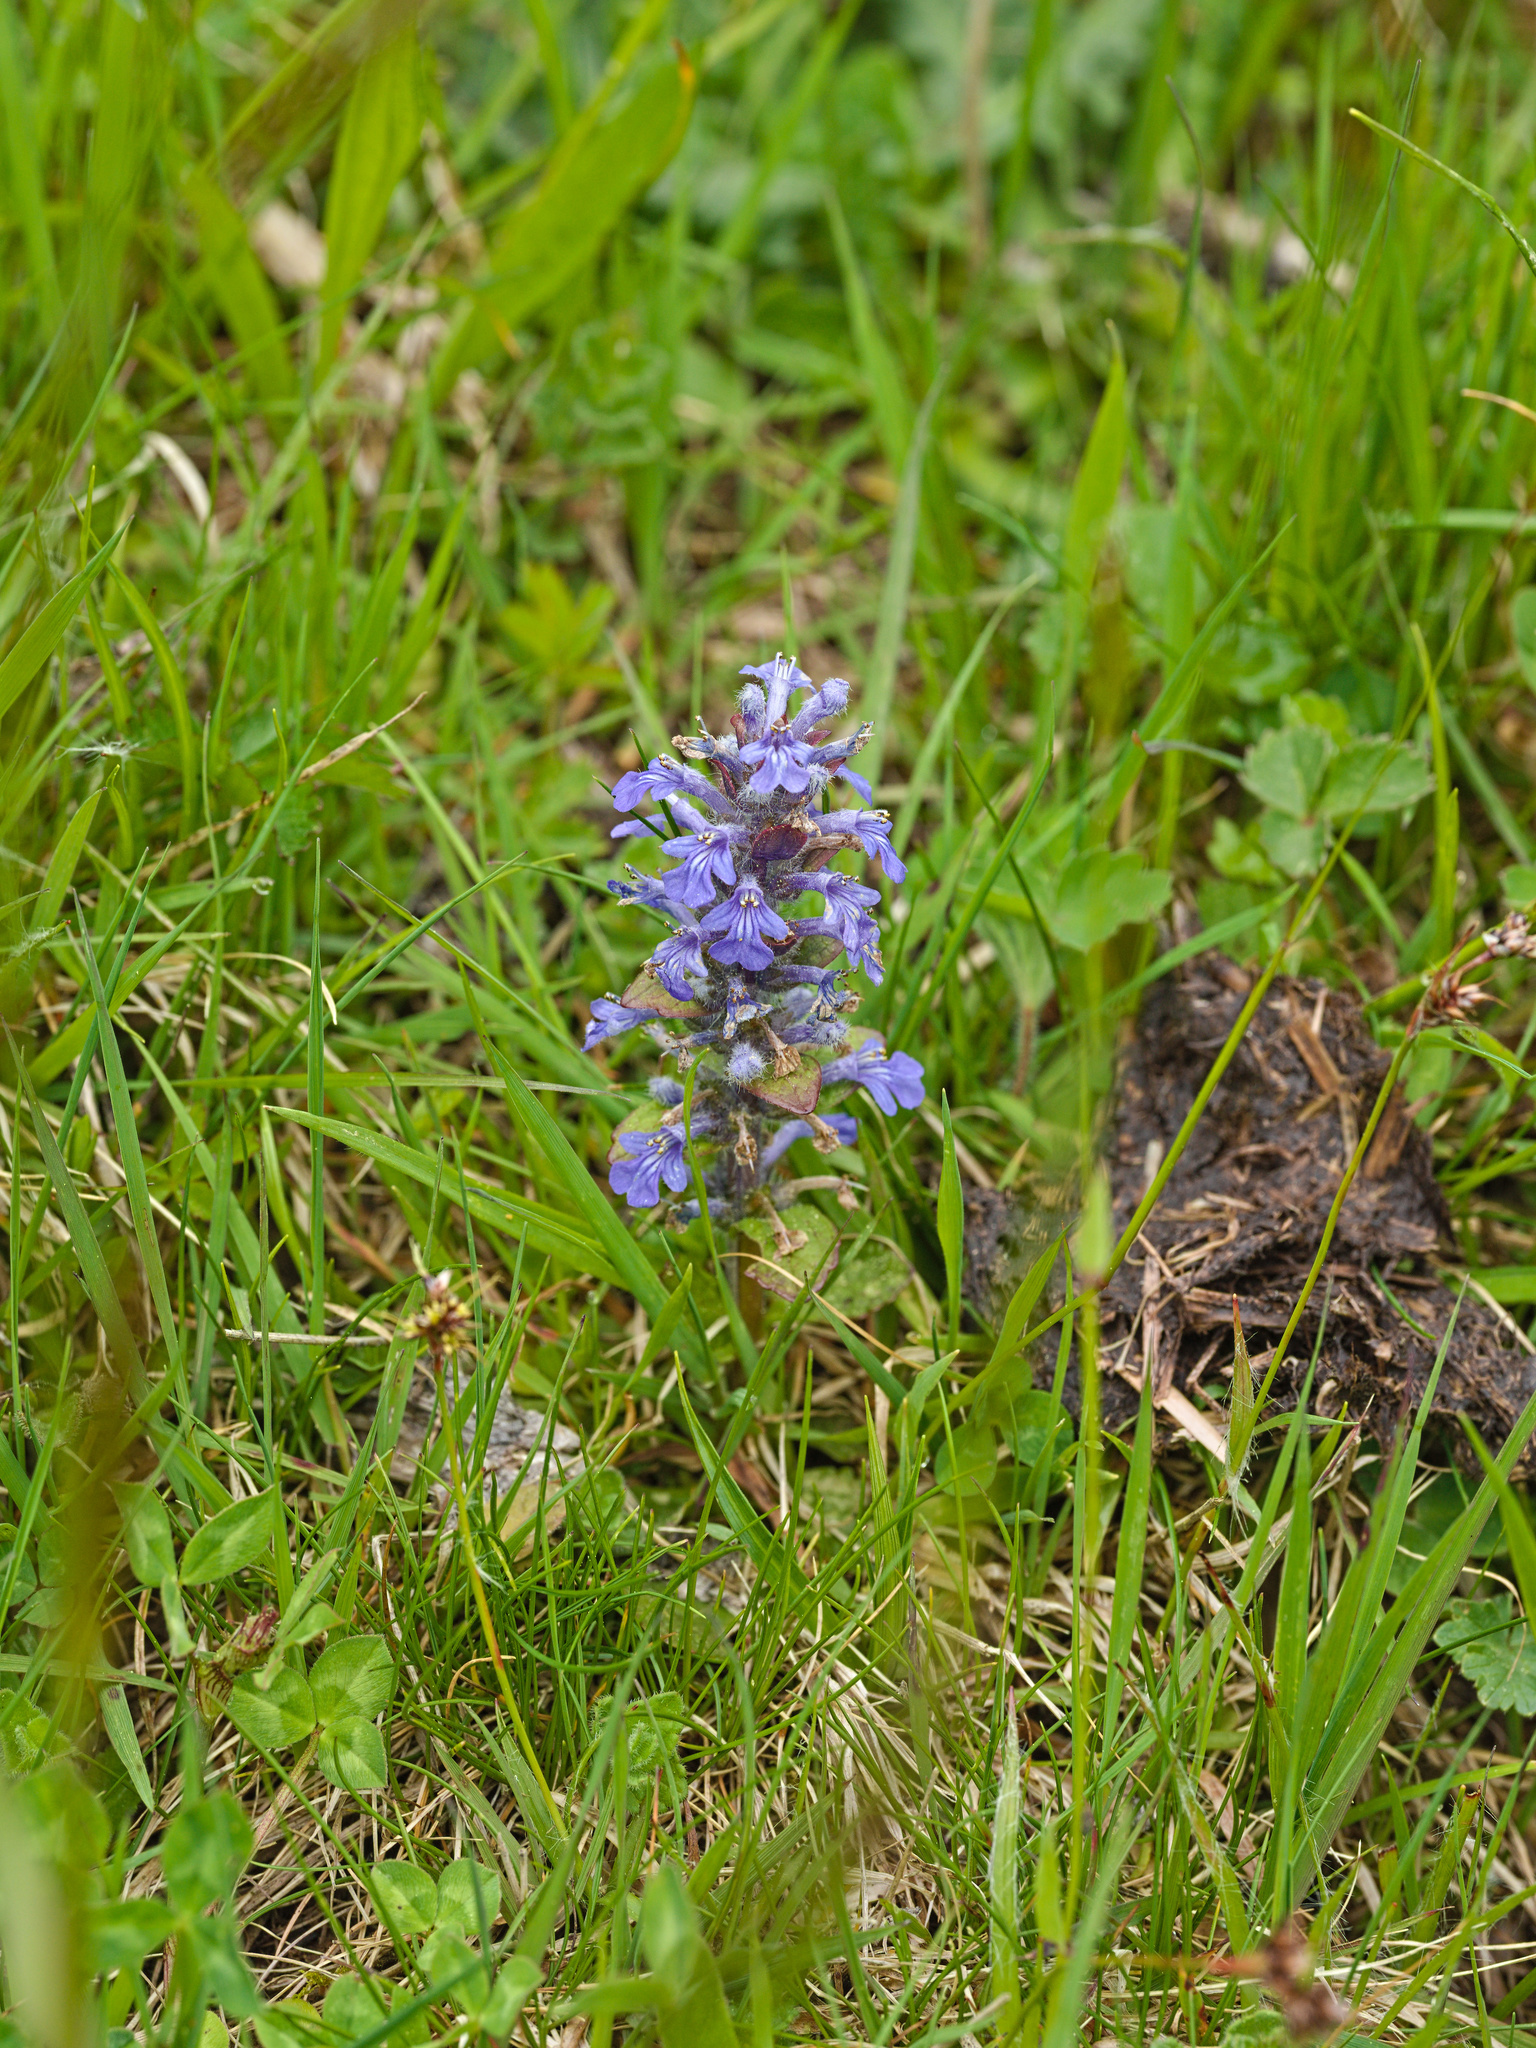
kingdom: Plantae
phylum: Tracheophyta
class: Magnoliopsida
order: Lamiales
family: Lamiaceae
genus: Ajuga
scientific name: Ajuga reptans
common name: Bugle
